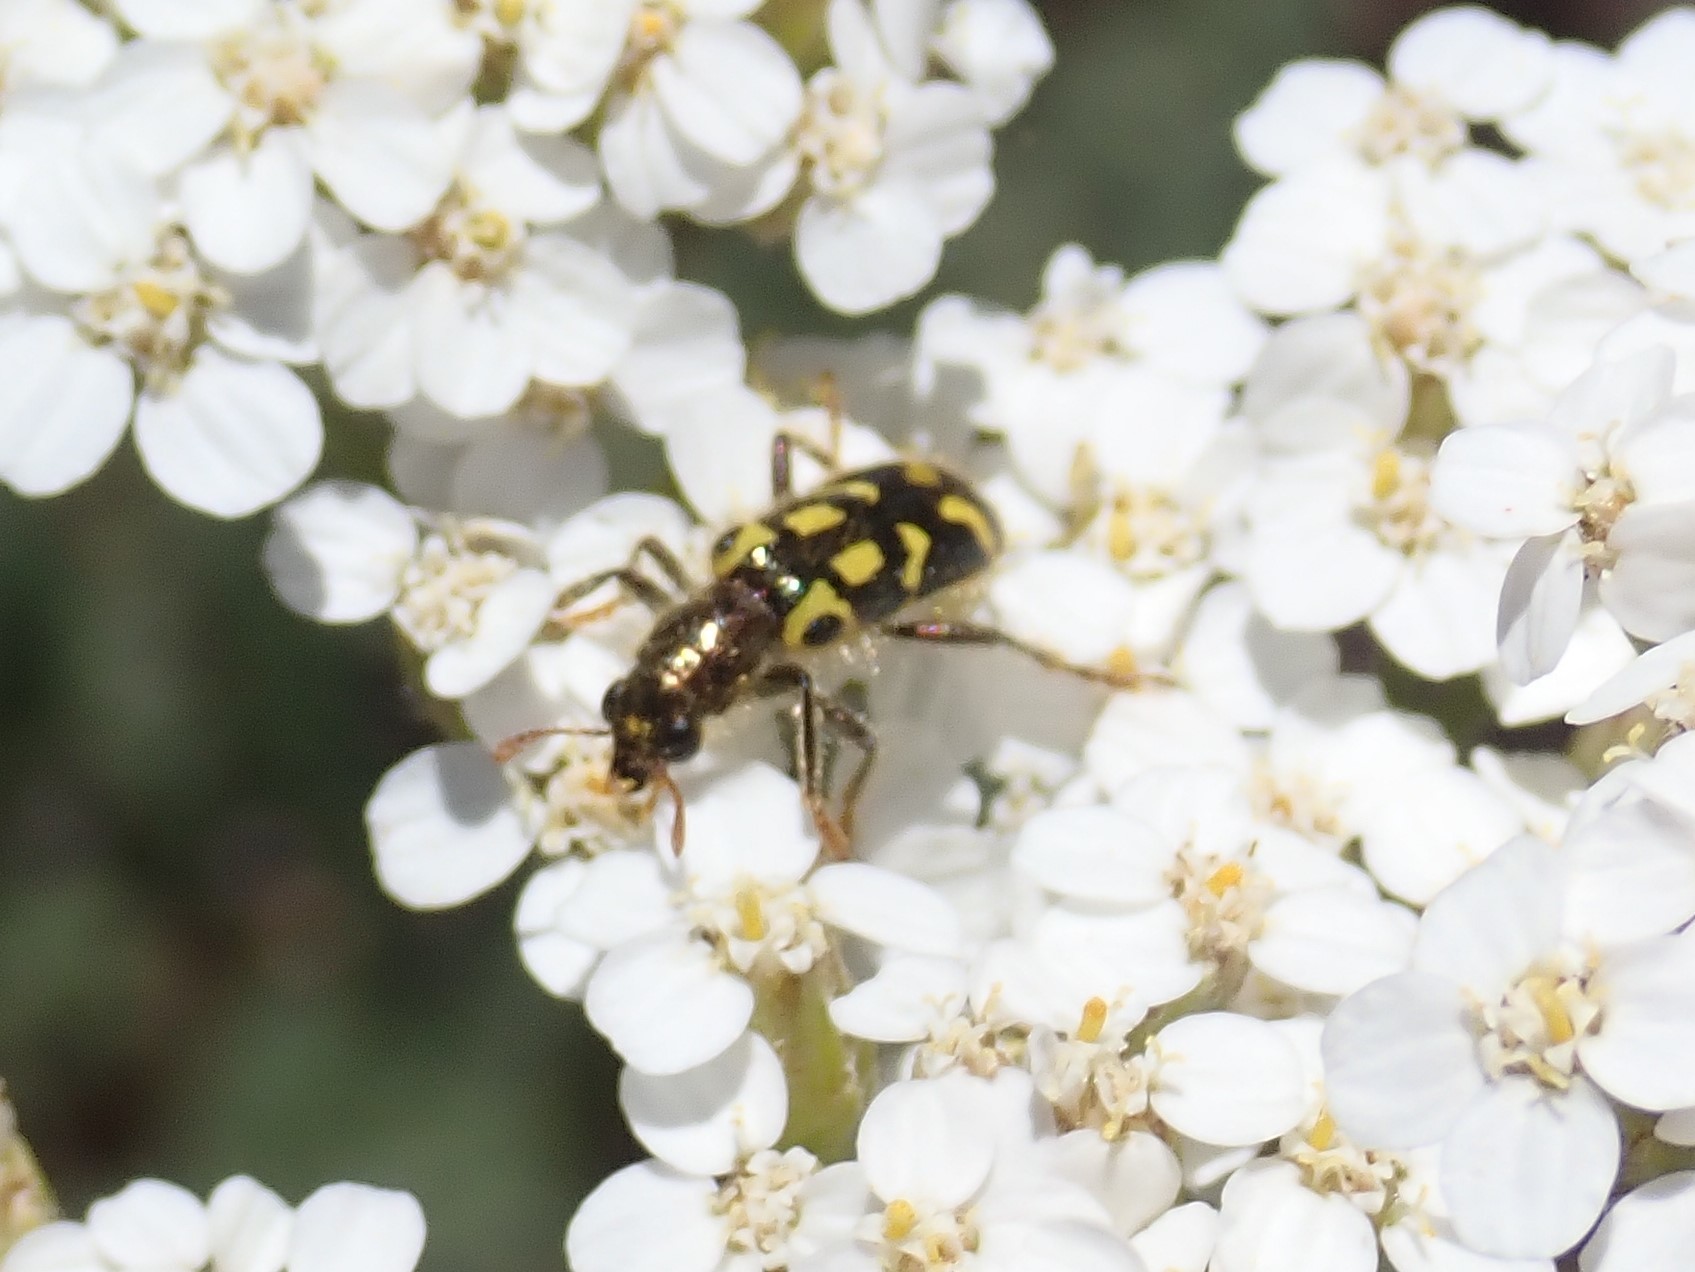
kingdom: Animalia
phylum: Arthropoda
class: Insecta
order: Coleoptera
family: Cleridae
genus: Trichodes
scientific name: Trichodes ornatus
